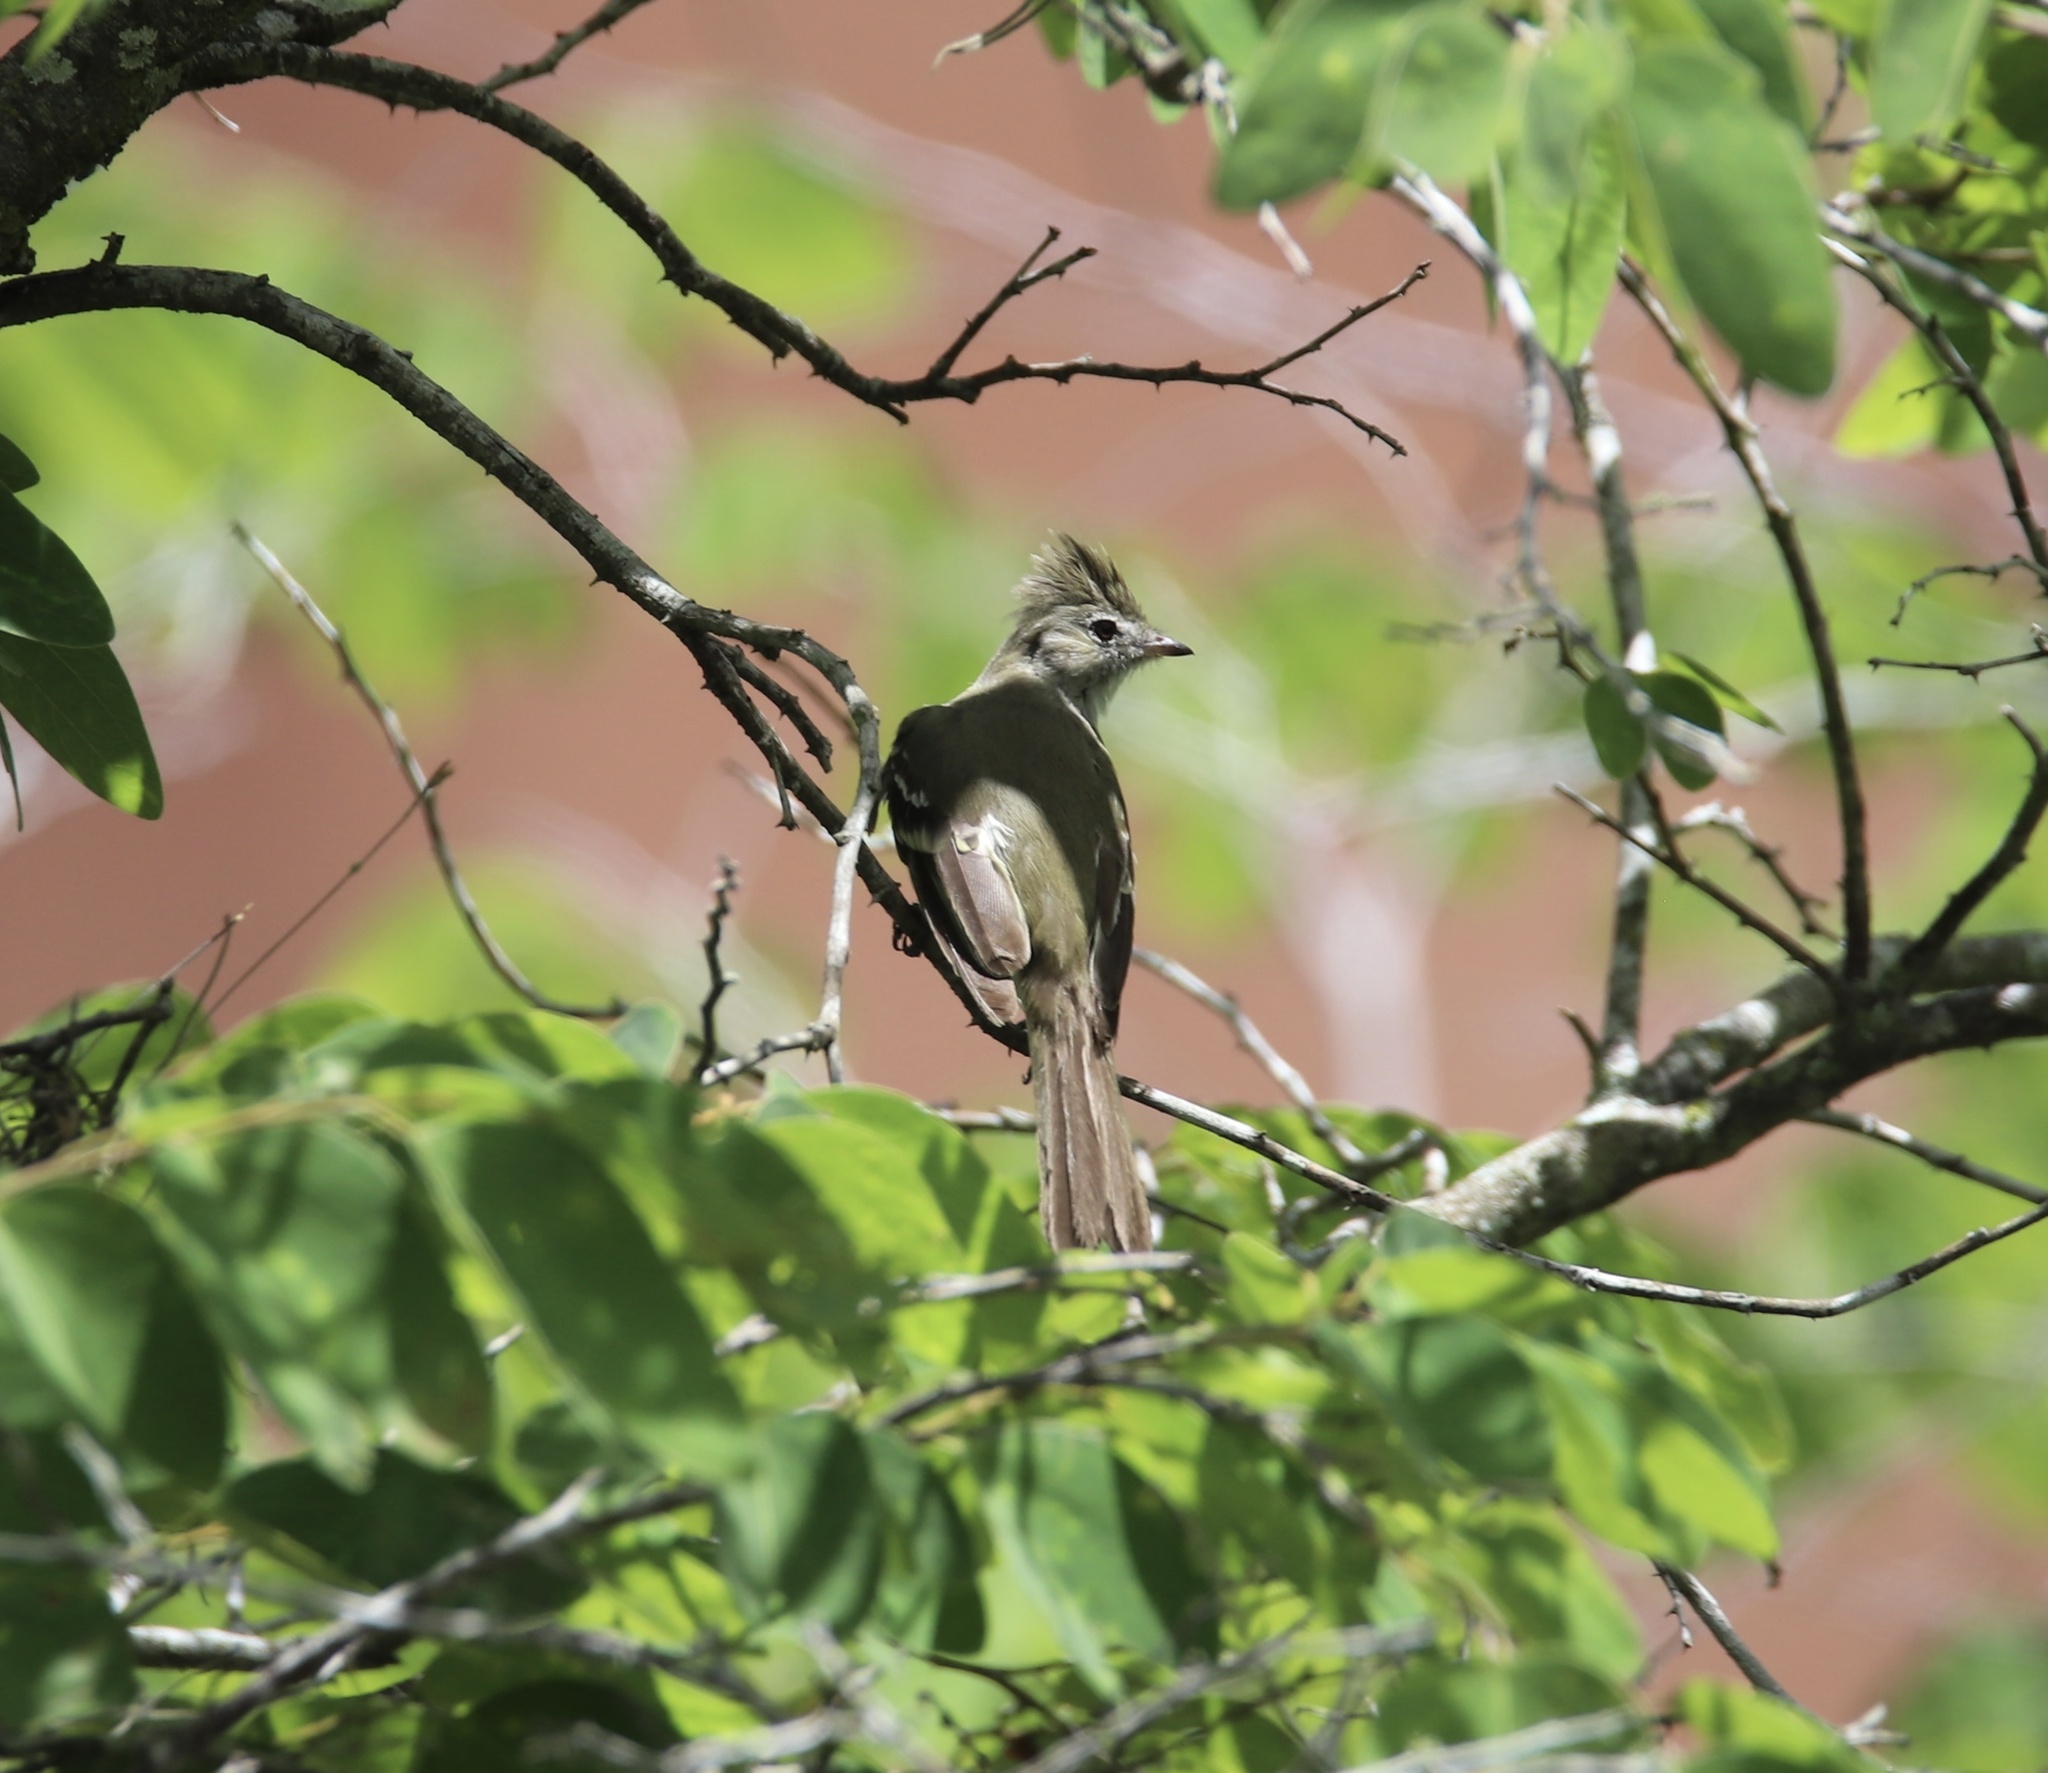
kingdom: Animalia
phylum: Chordata
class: Aves
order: Passeriformes
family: Tyrannidae
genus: Elaenia
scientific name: Elaenia flavogaster
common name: Yellow-bellied elaenia
